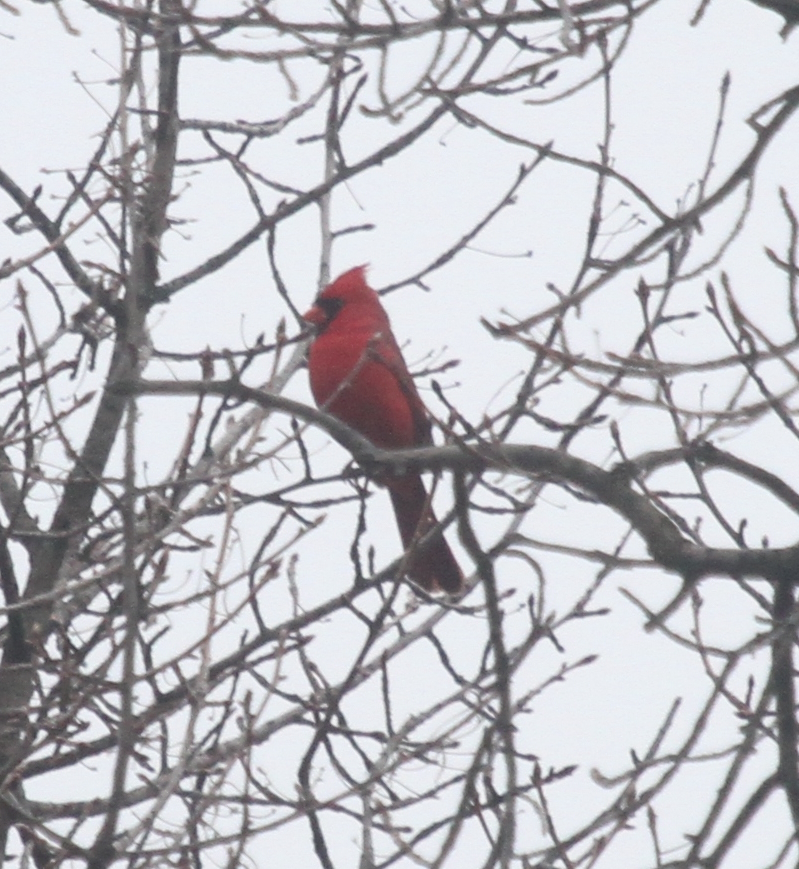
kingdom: Animalia
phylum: Chordata
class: Aves
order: Passeriformes
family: Cardinalidae
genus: Cardinalis
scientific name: Cardinalis cardinalis
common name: Northern cardinal
